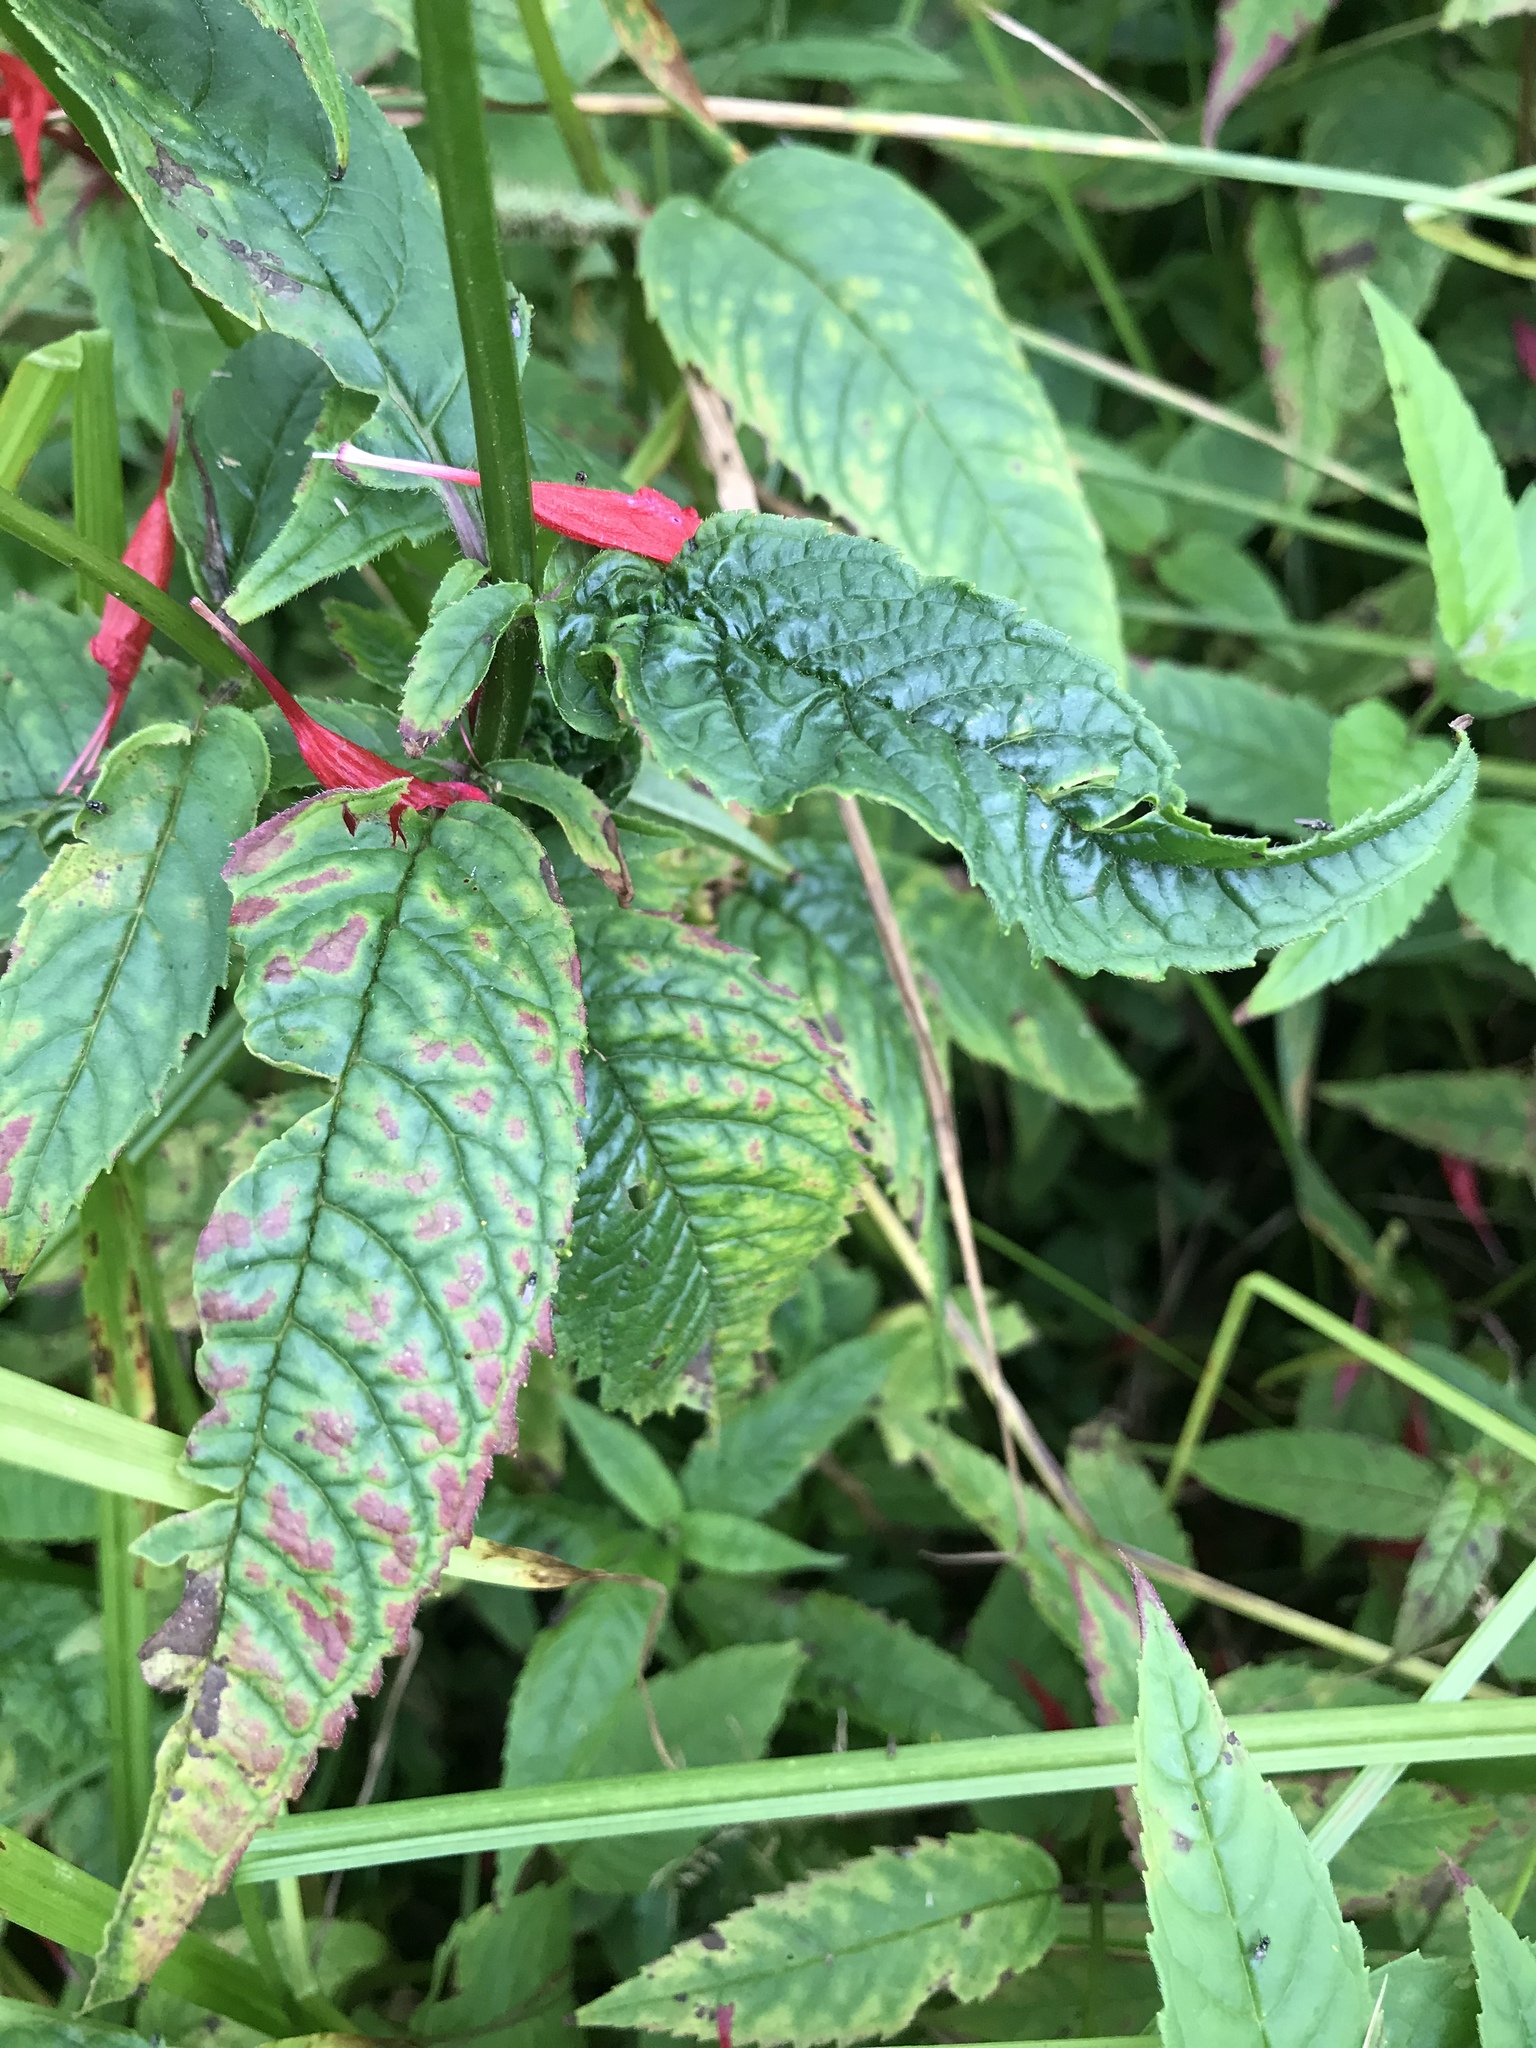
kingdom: Plantae
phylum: Tracheophyta
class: Magnoliopsida
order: Lamiales
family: Lamiaceae
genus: Monarda
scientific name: Monarda didyma
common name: Beebalm
